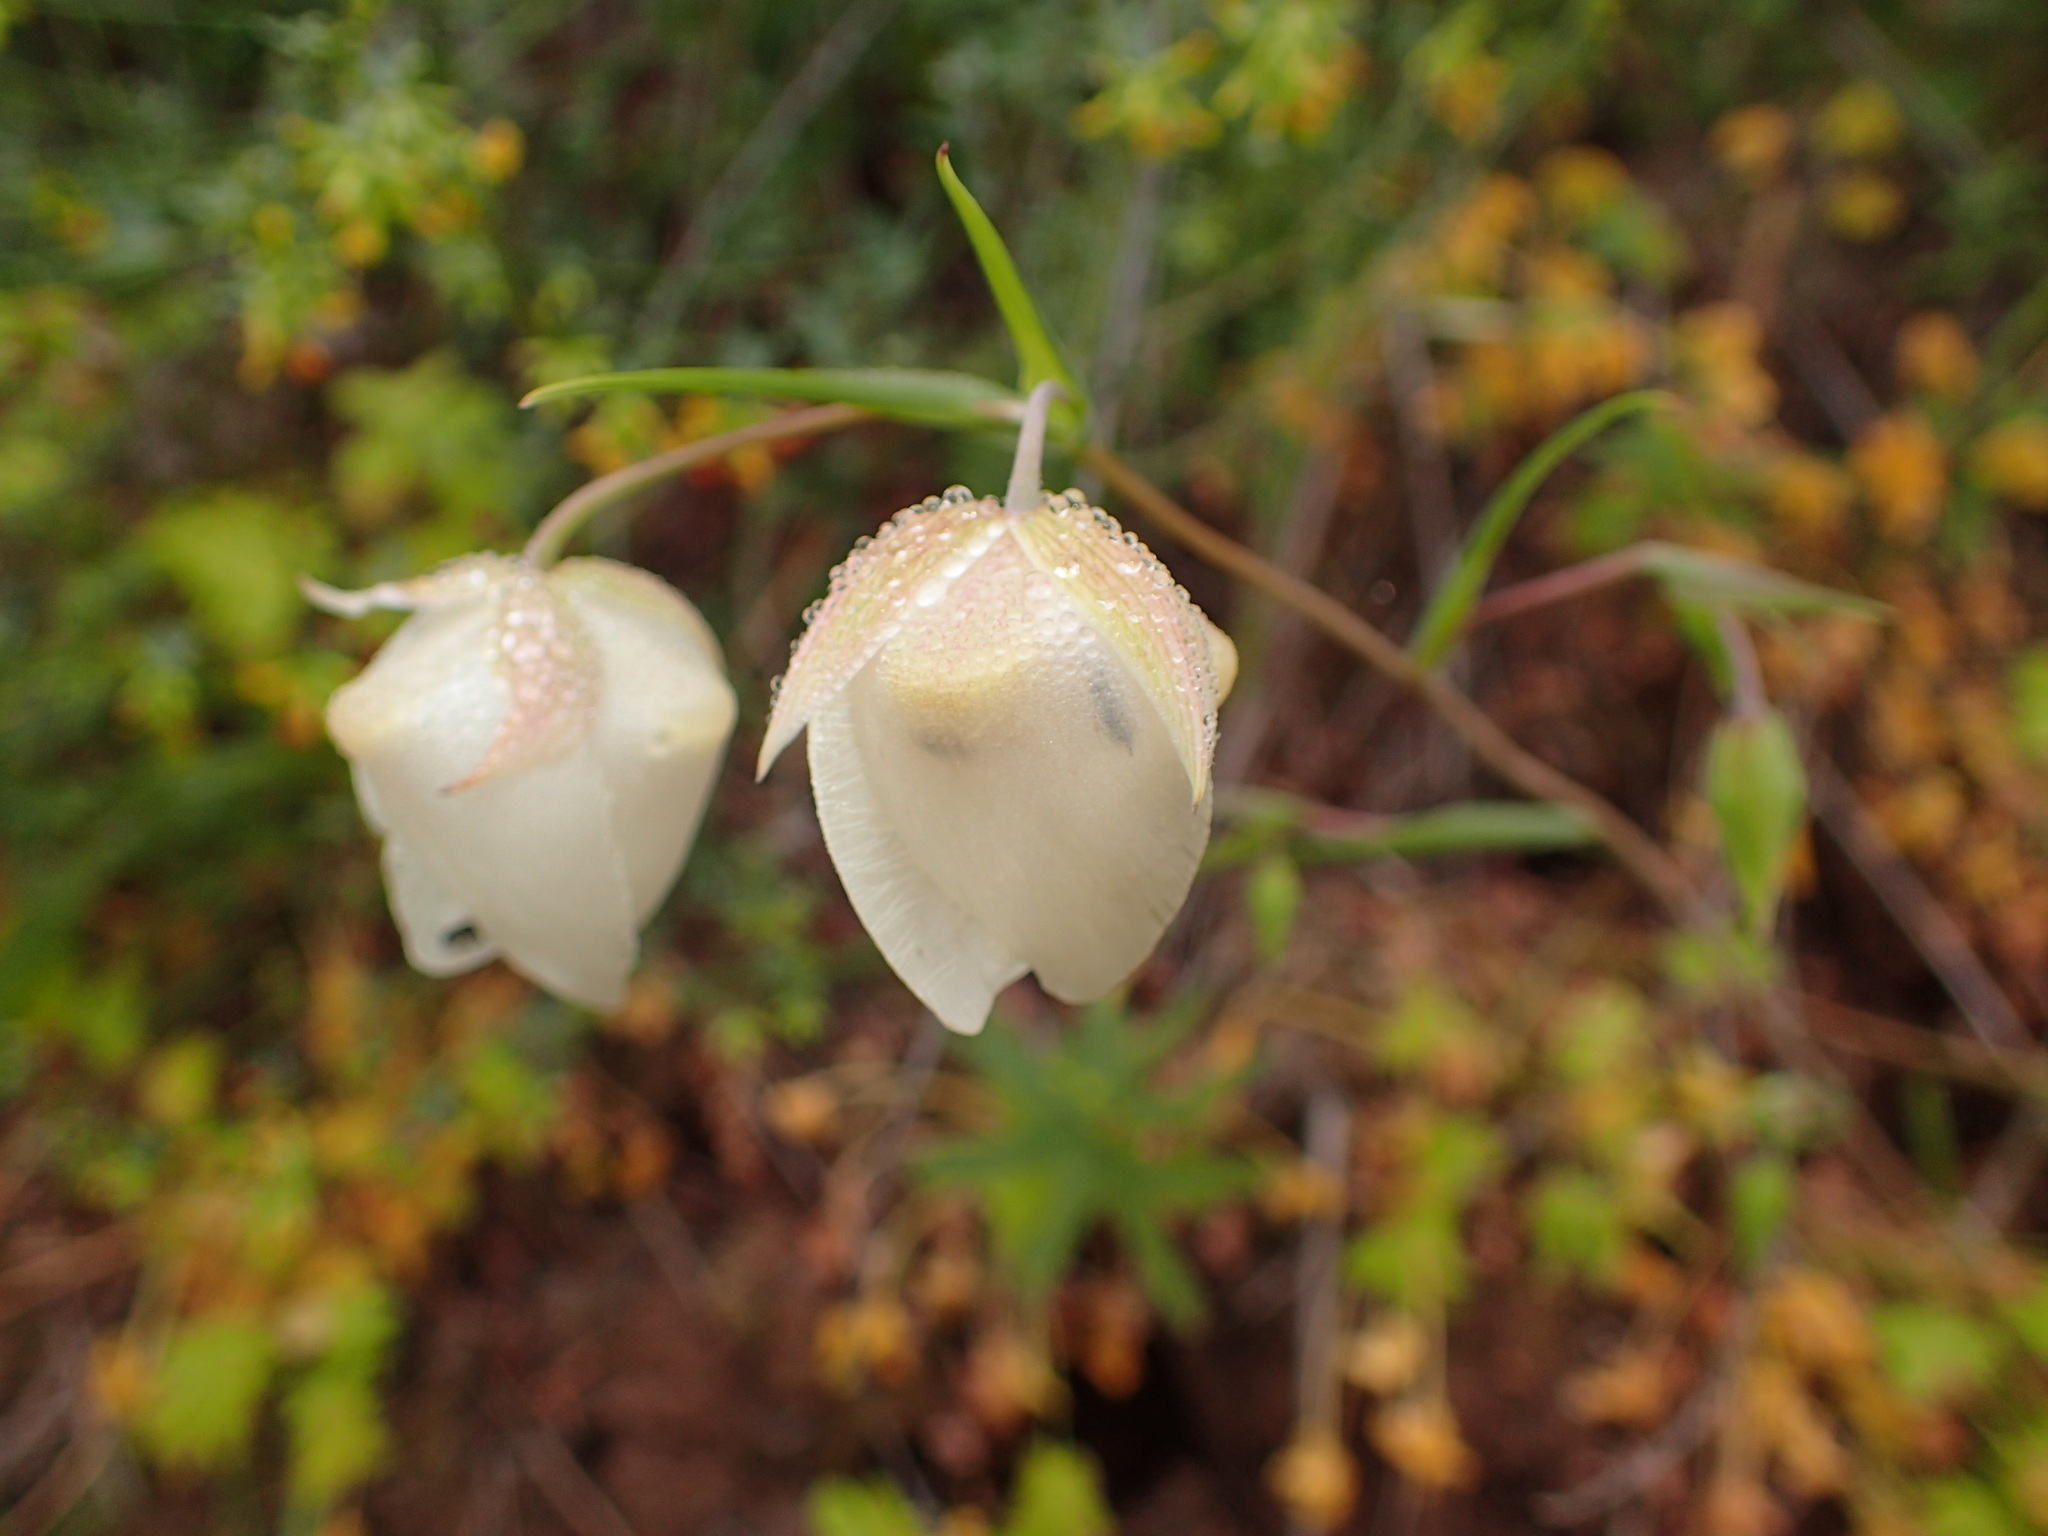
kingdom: Plantae
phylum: Tracheophyta
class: Liliopsida
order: Liliales
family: Liliaceae
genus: Calochortus
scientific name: Calochortus albus
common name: Fairy-lantern
